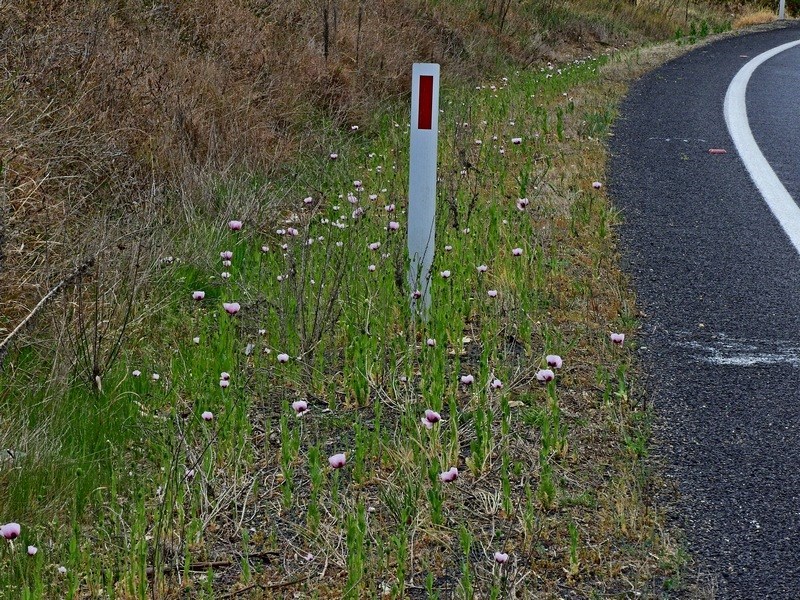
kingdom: Plantae
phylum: Tracheophyta
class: Magnoliopsida
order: Ranunculales
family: Papaveraceae
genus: Papaver
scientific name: Papaver setigerum
